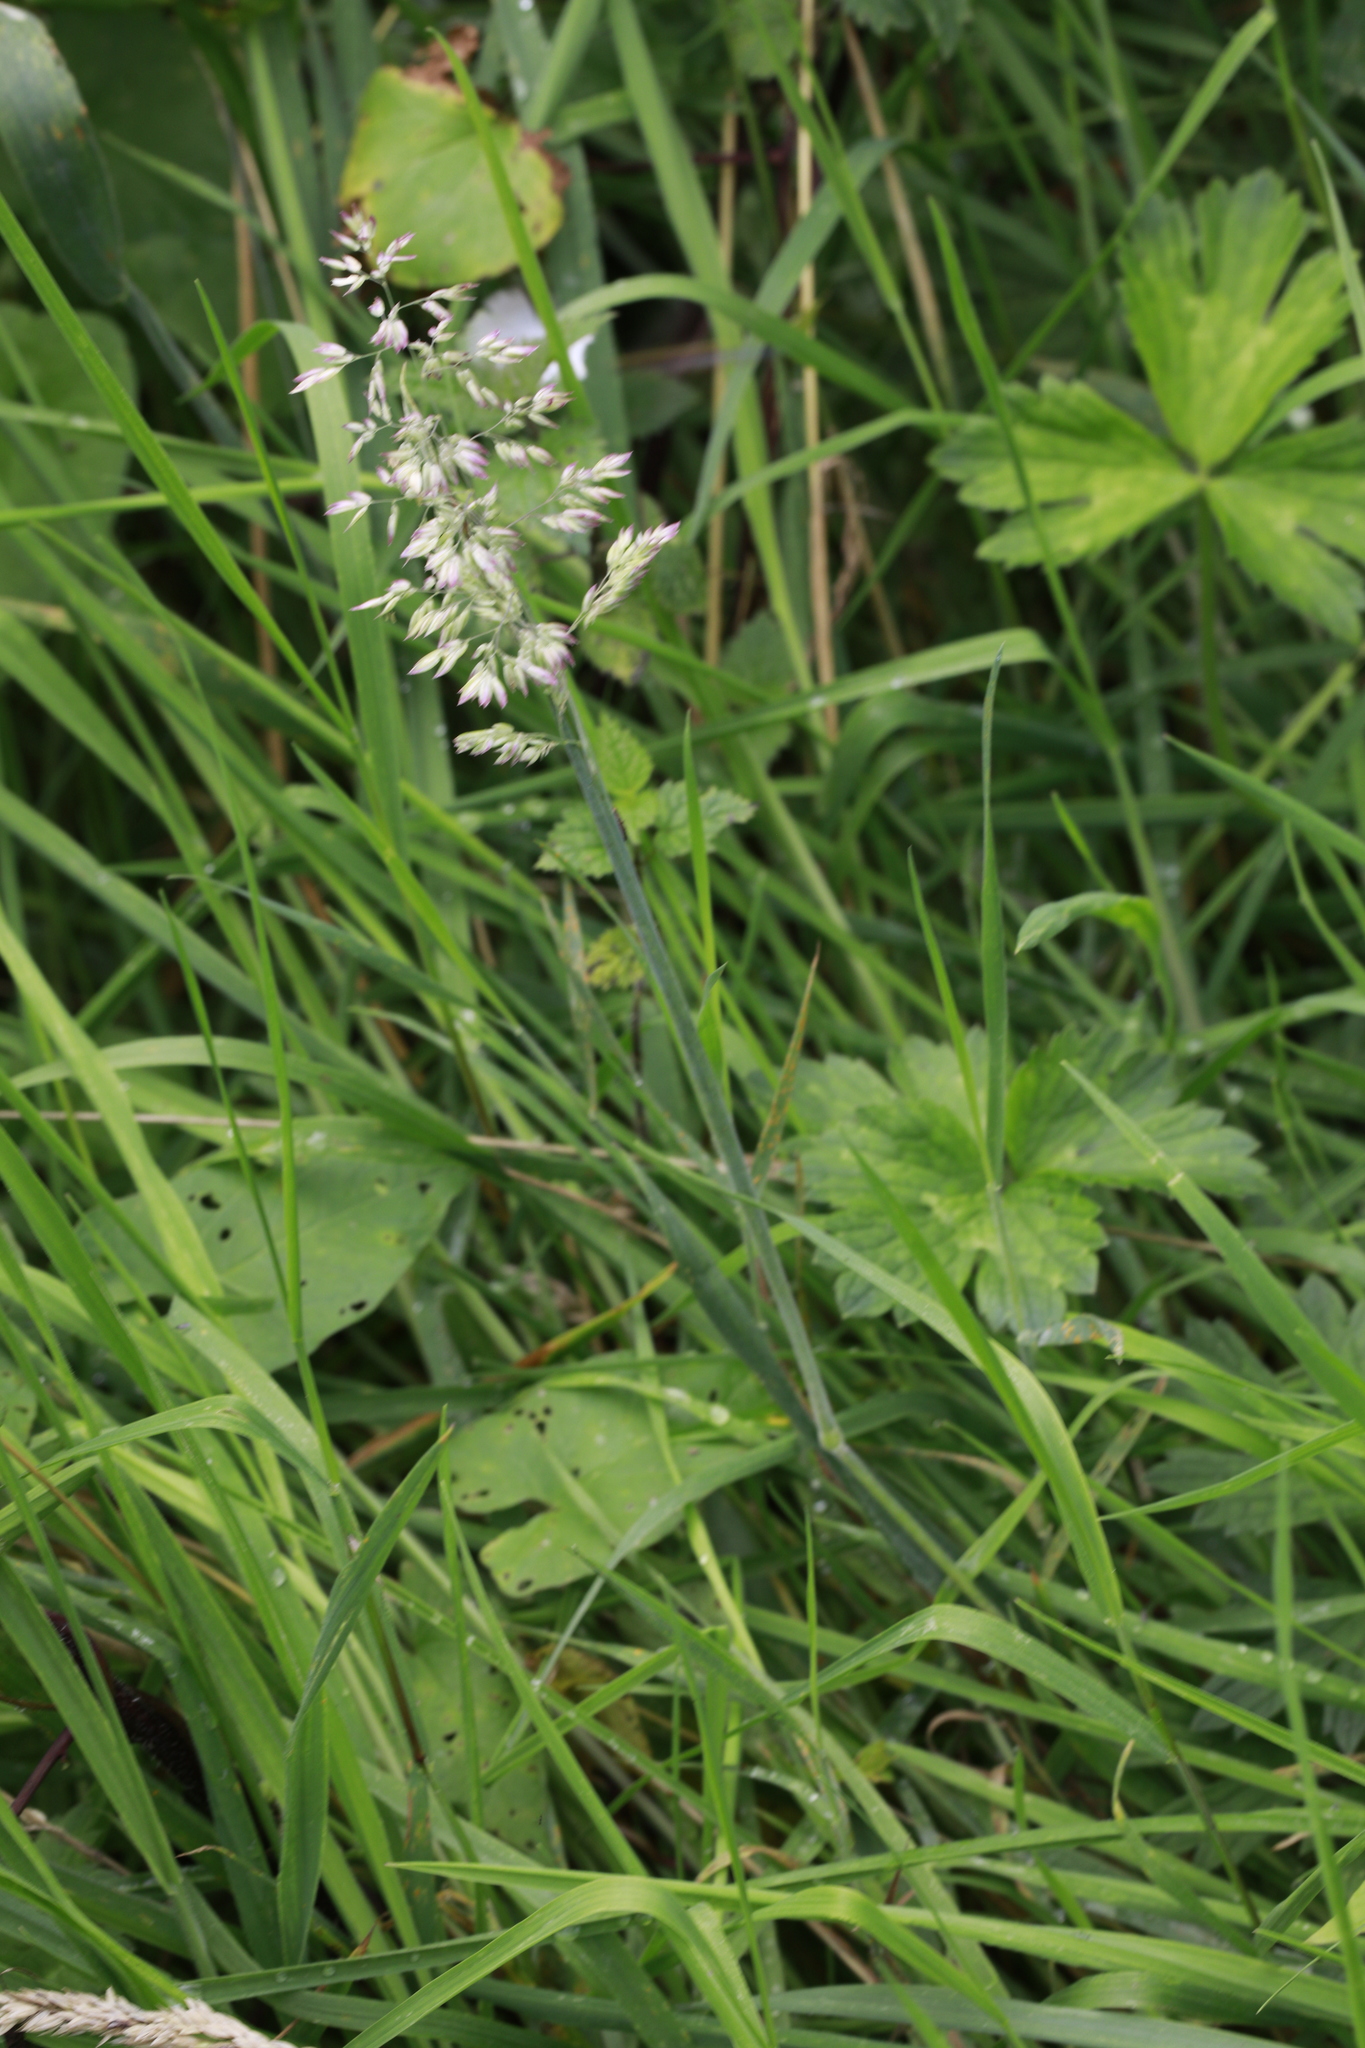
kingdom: Plantae
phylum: Tracheophyta
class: Liliopsida
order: Poales
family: Poaceae
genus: Holcus
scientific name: Holcus lanatus
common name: Yorkshire-fog
